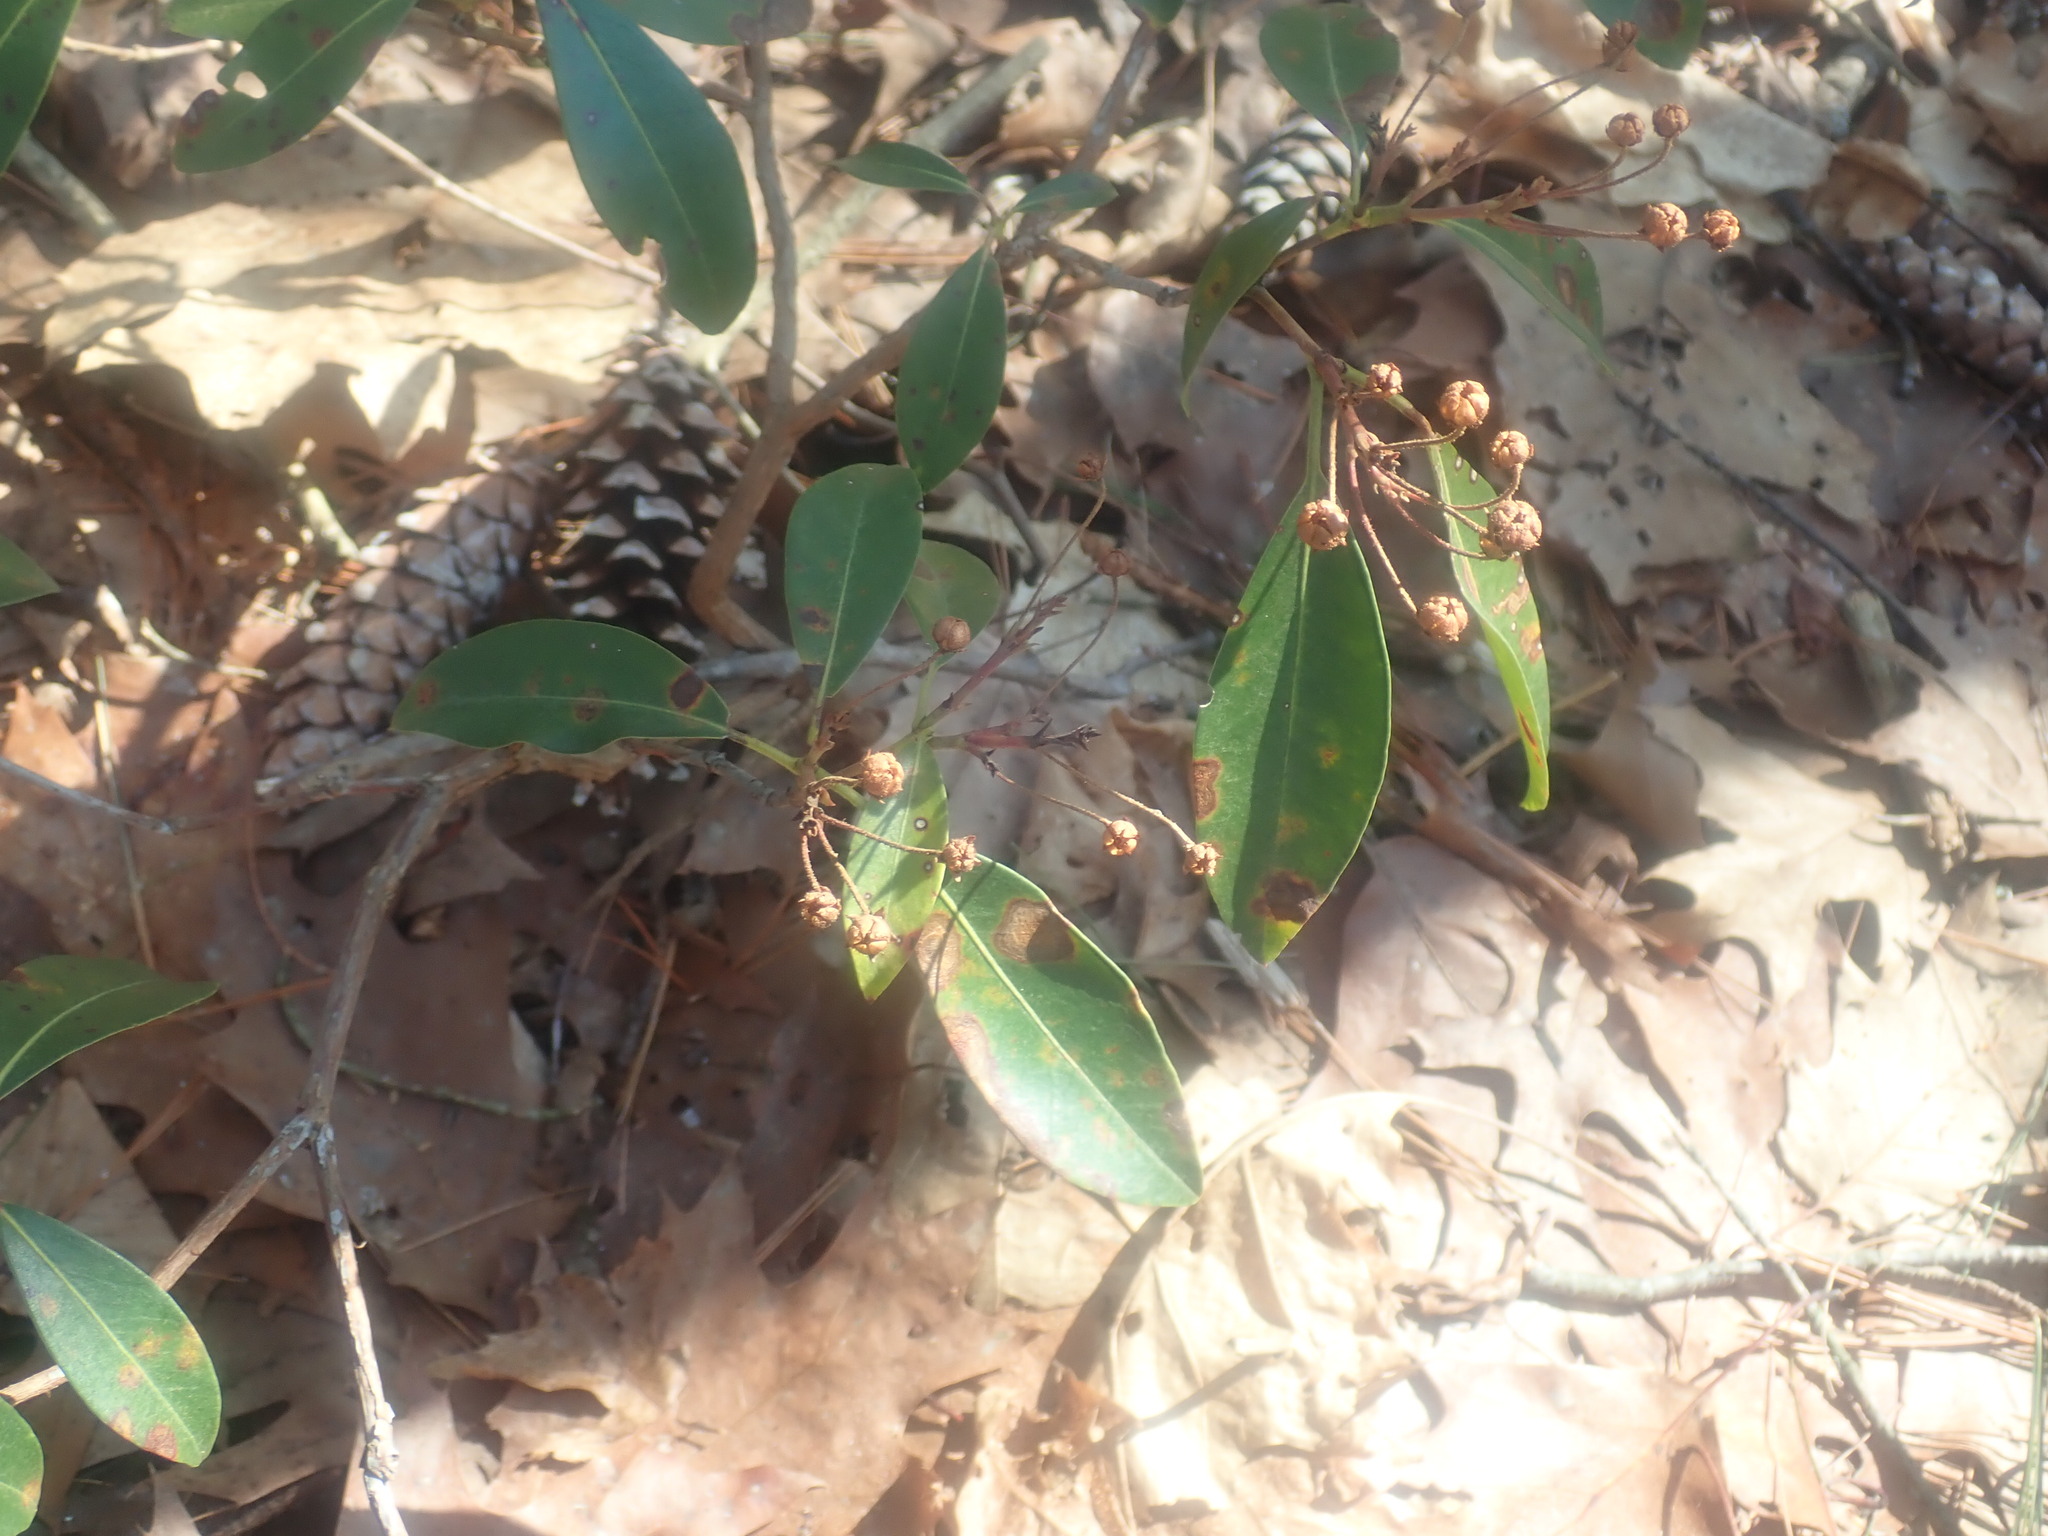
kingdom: Plantae
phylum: Tracheophyta
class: Magnoliopsida
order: Ericales
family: Ericaceae
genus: Kalmia
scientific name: Kalmia latifolia
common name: Mountain-laurel
